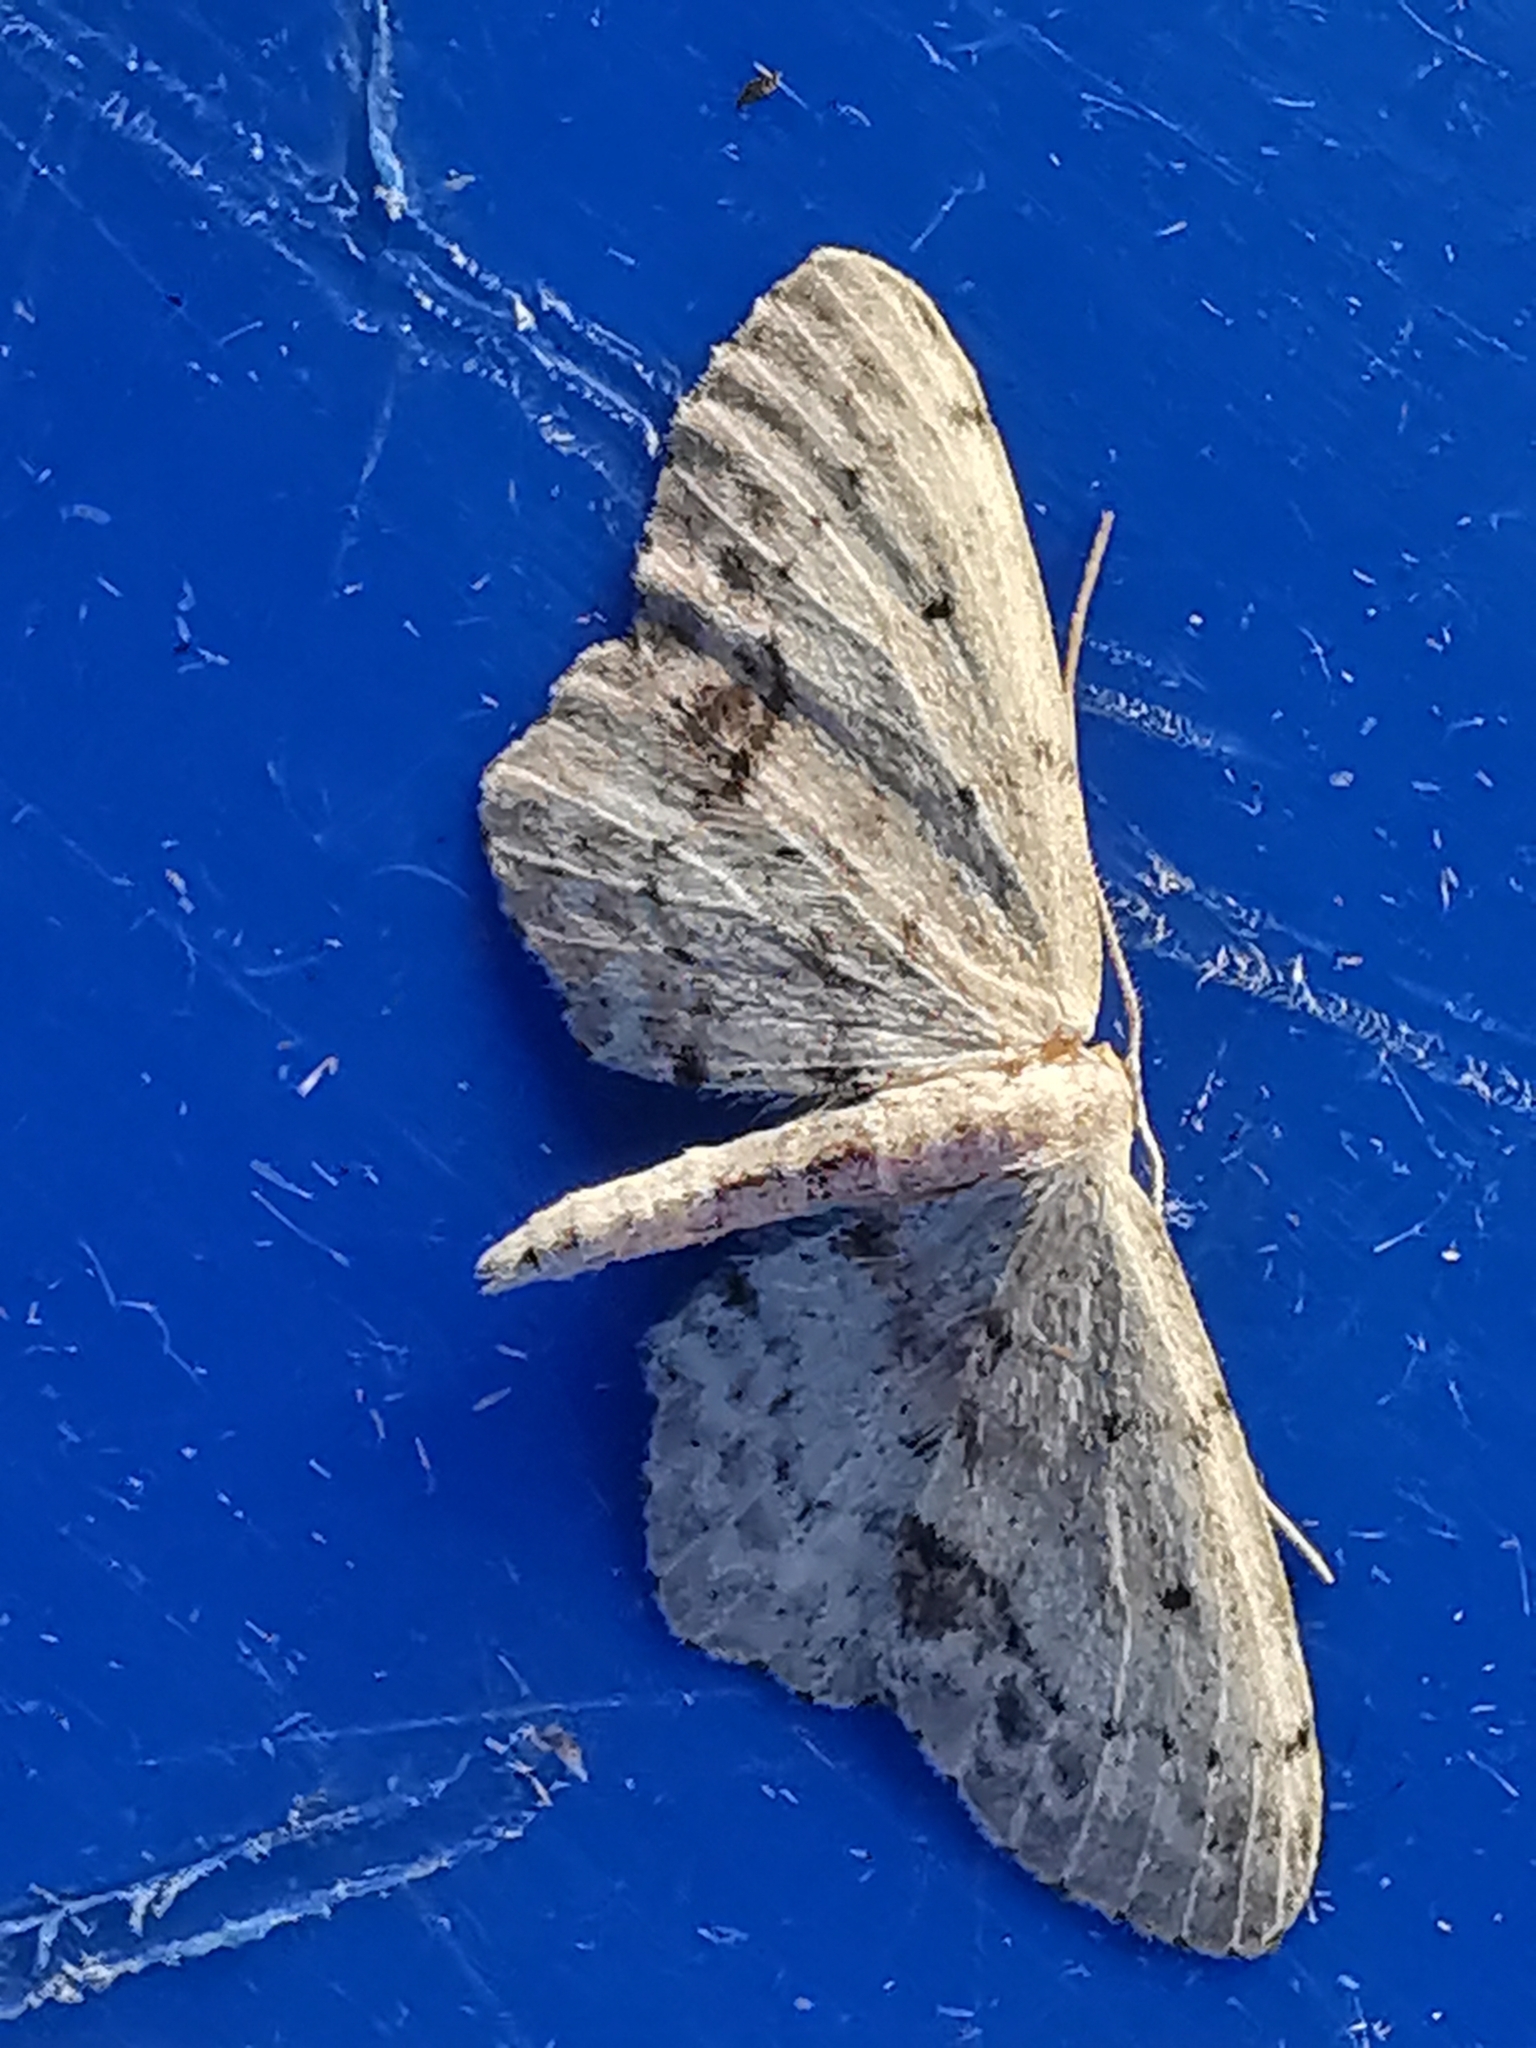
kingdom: Animalia
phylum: Arthropoda
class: Insecta
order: Lepidoptera
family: Geometridae
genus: Idaea
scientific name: Idaea dimidiata
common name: Single-dotted wave
